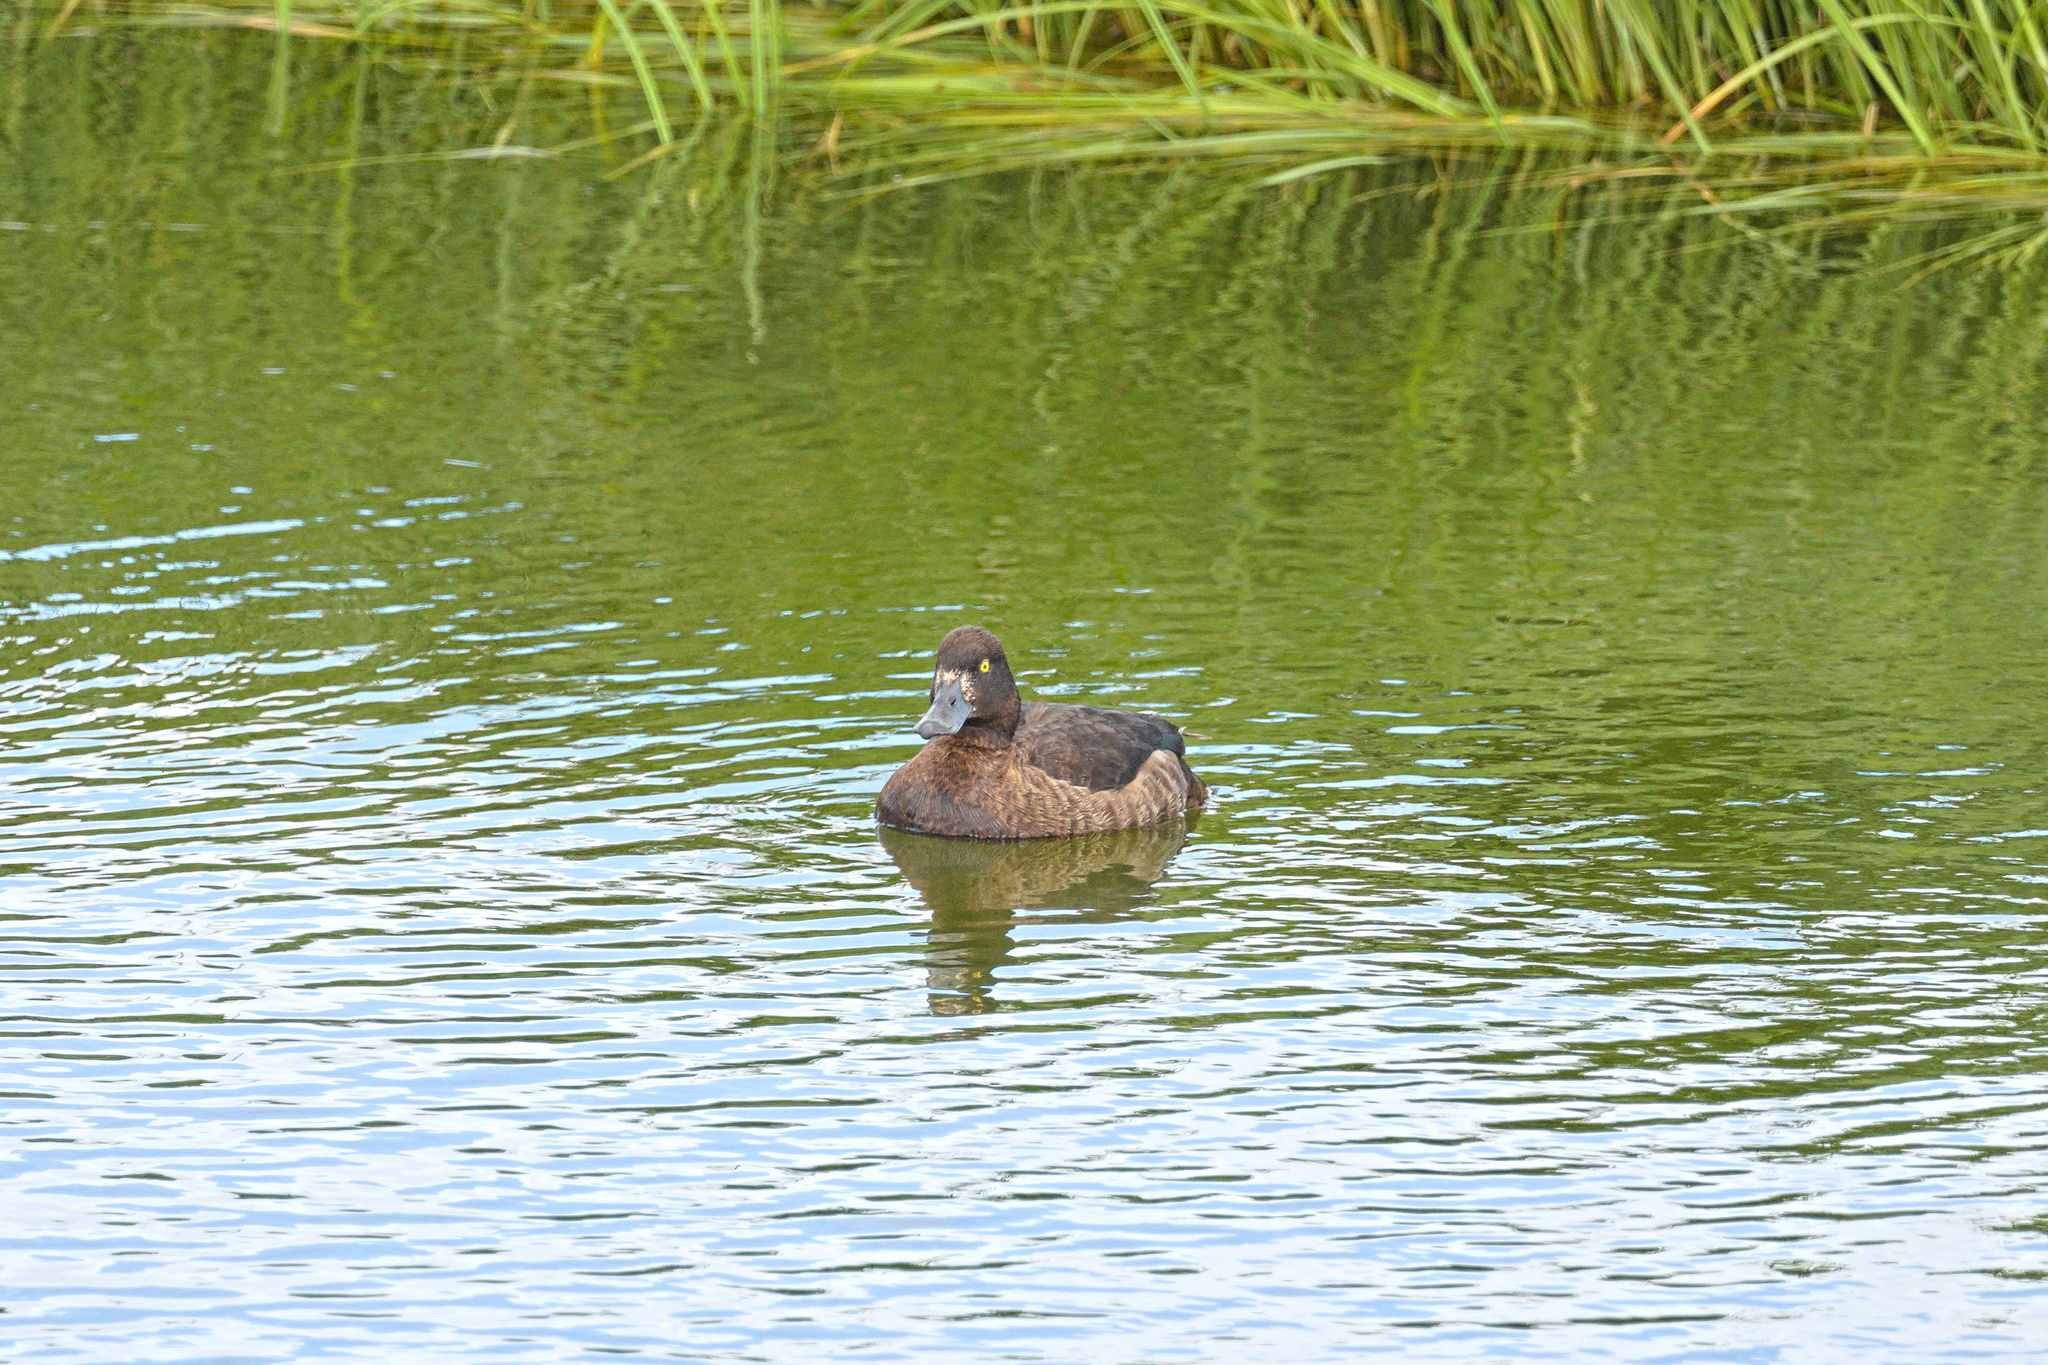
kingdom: Animalia
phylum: Chordata
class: Aves
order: Anseriformes
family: Anatidae
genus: Aythya
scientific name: Aythya fuligula
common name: Tufted duck
